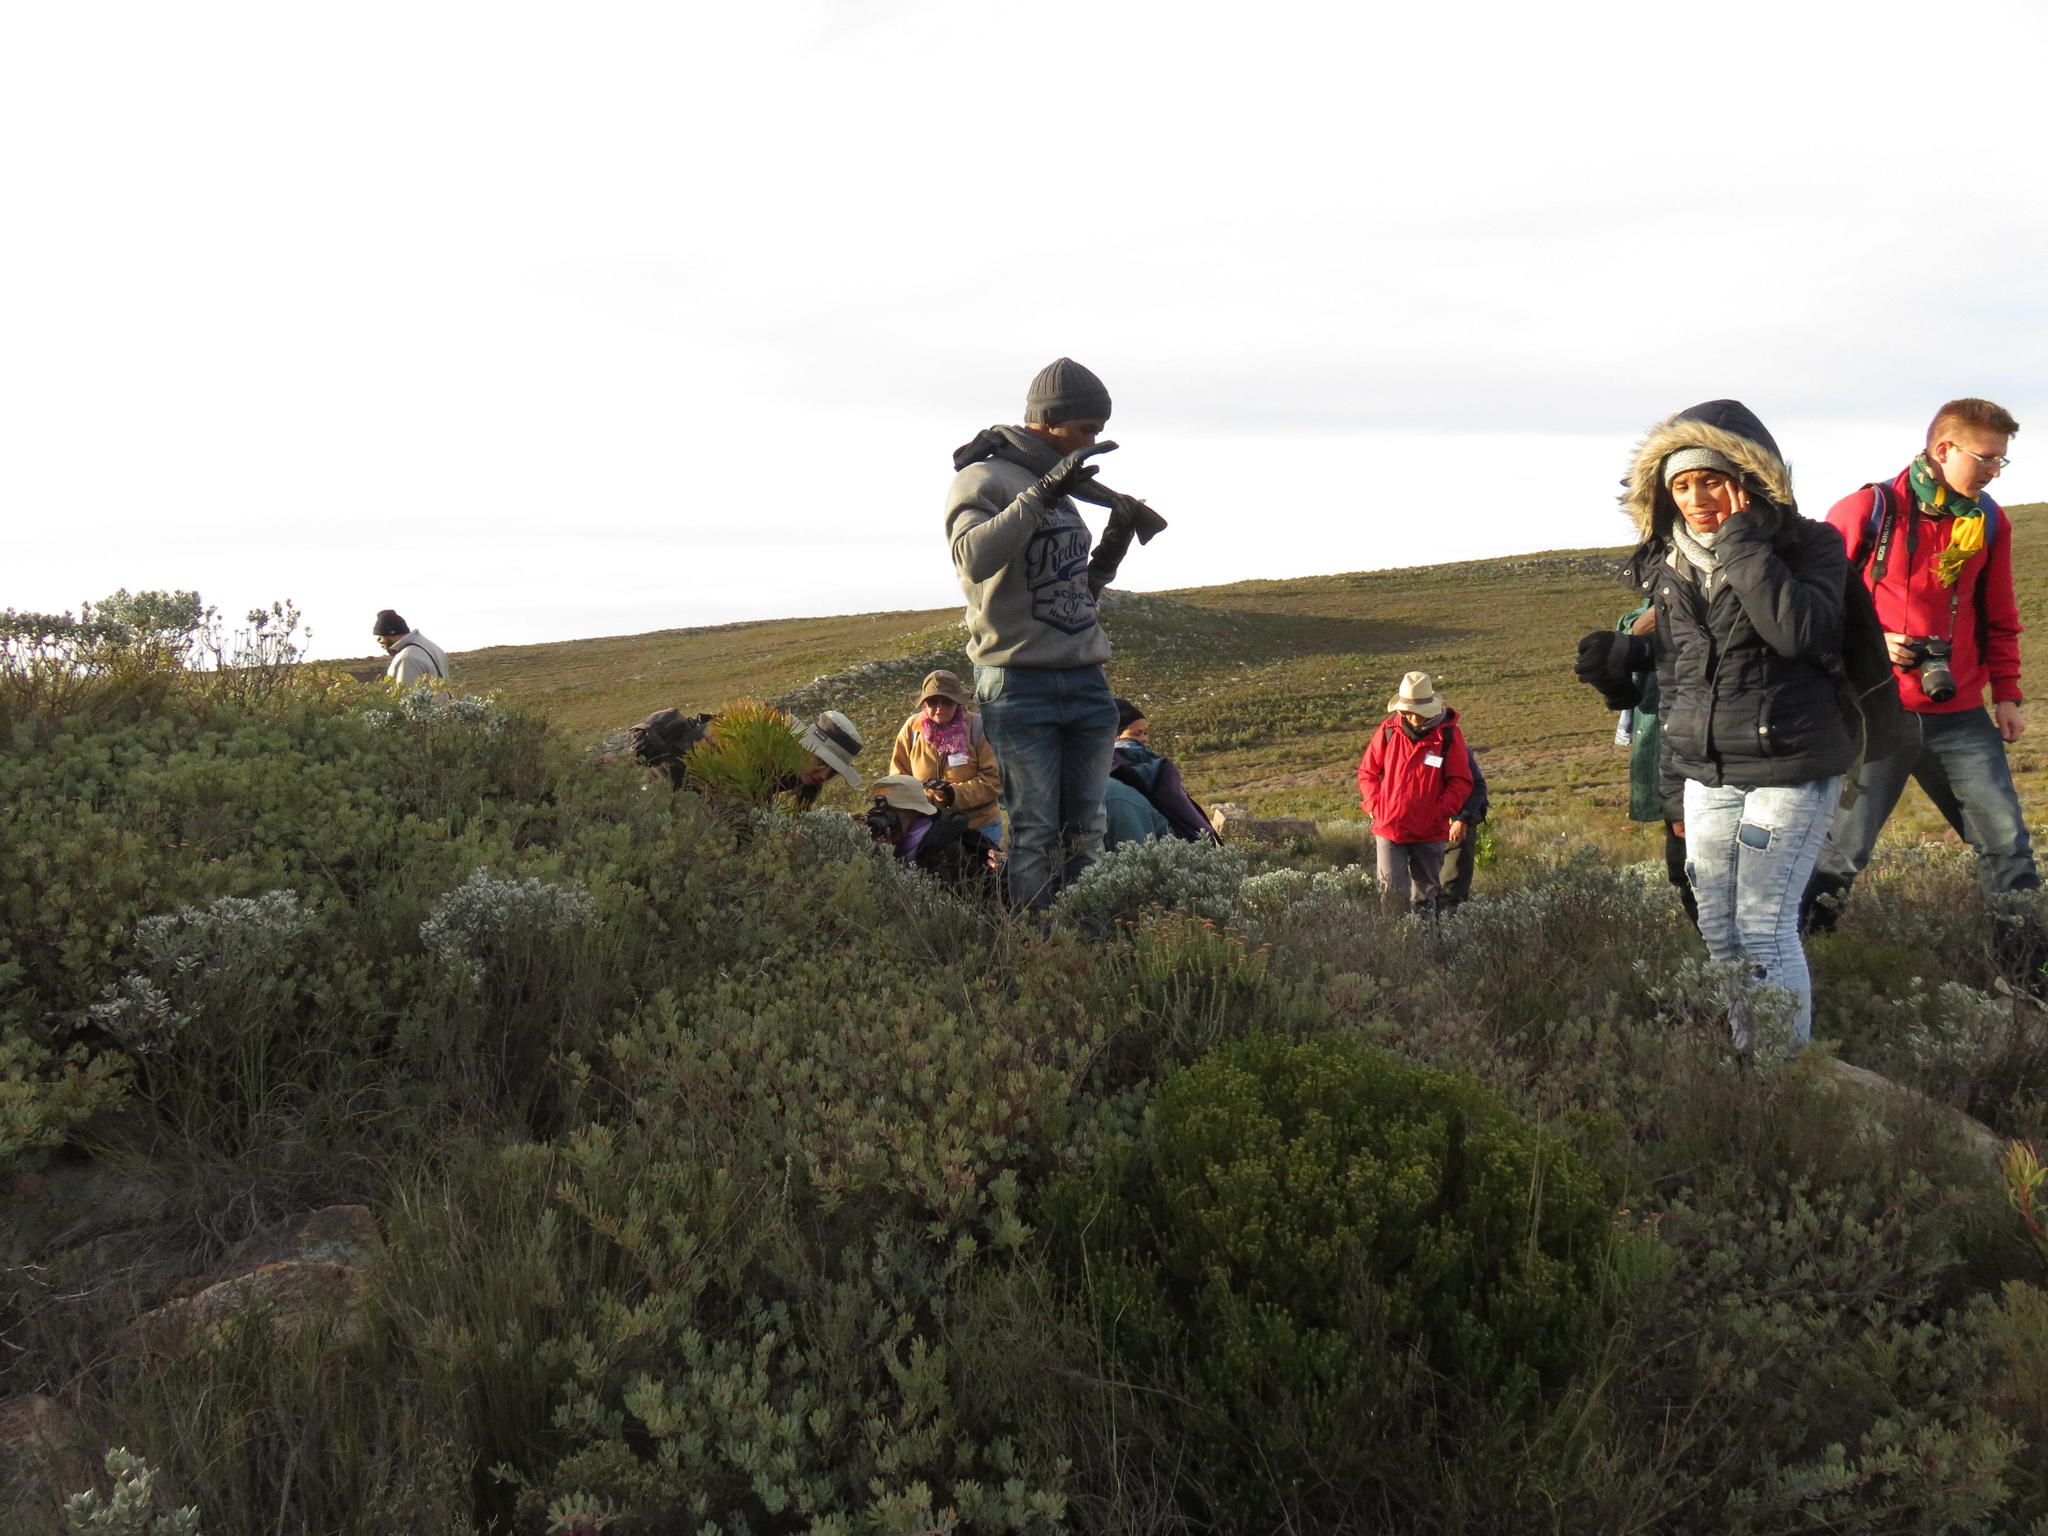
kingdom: Plantae
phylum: Tracheophyta
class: Magnoliopsida
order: Proteales
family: Proteaceae
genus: Protea
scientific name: Protea sulphurea
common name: Sulphur sugarbush
